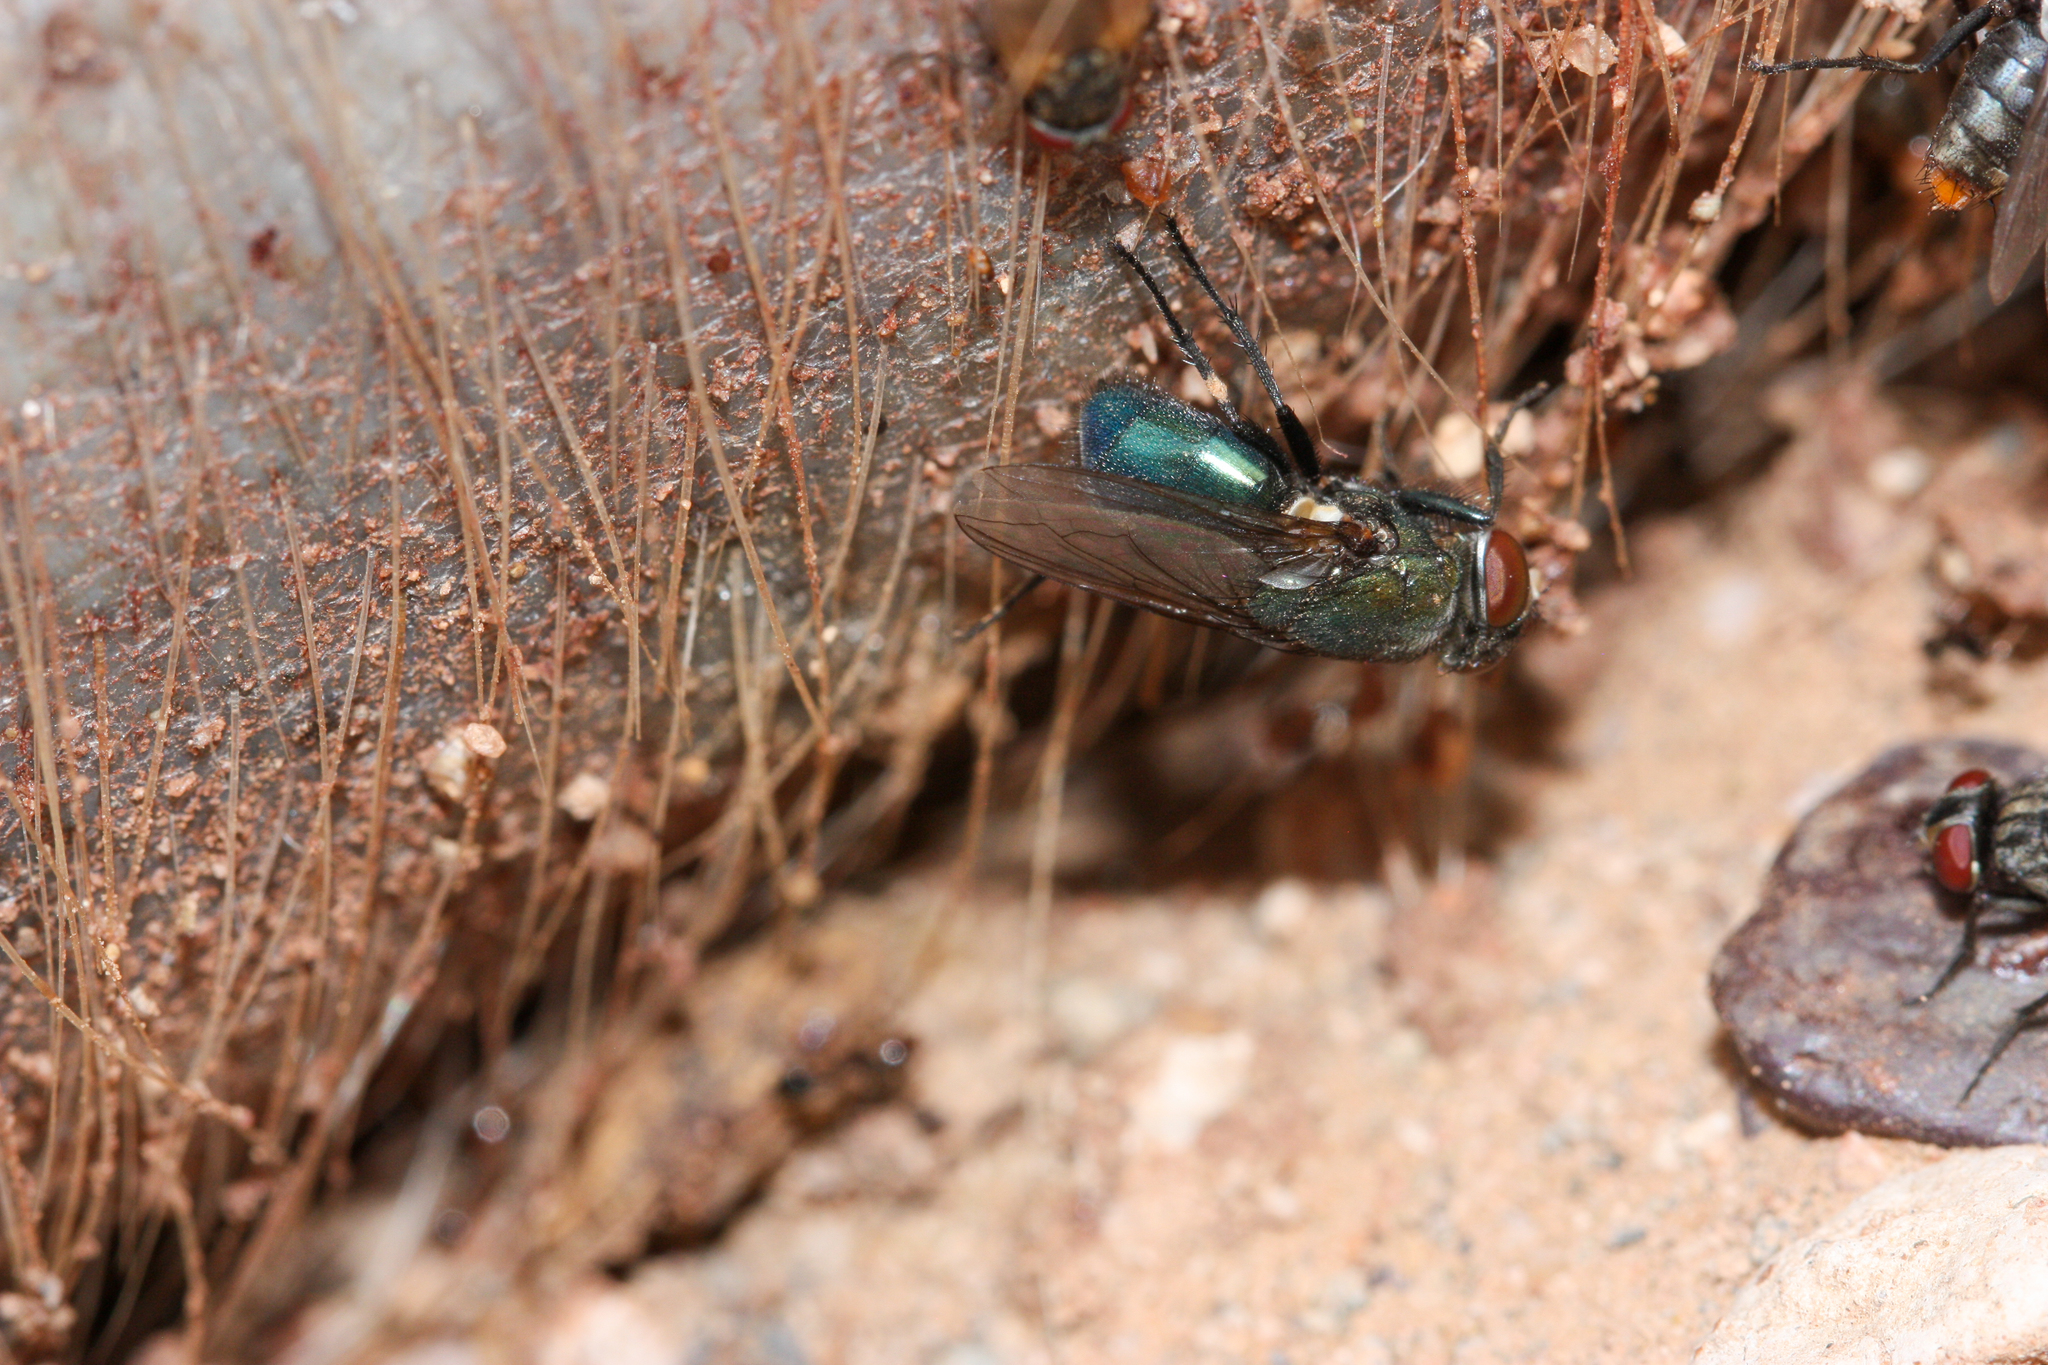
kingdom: Animalia
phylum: Arthropoda
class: Insecta
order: Diptera
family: Calliphoridae
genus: Phormia
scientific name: Phormia regina
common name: Black blow fly
